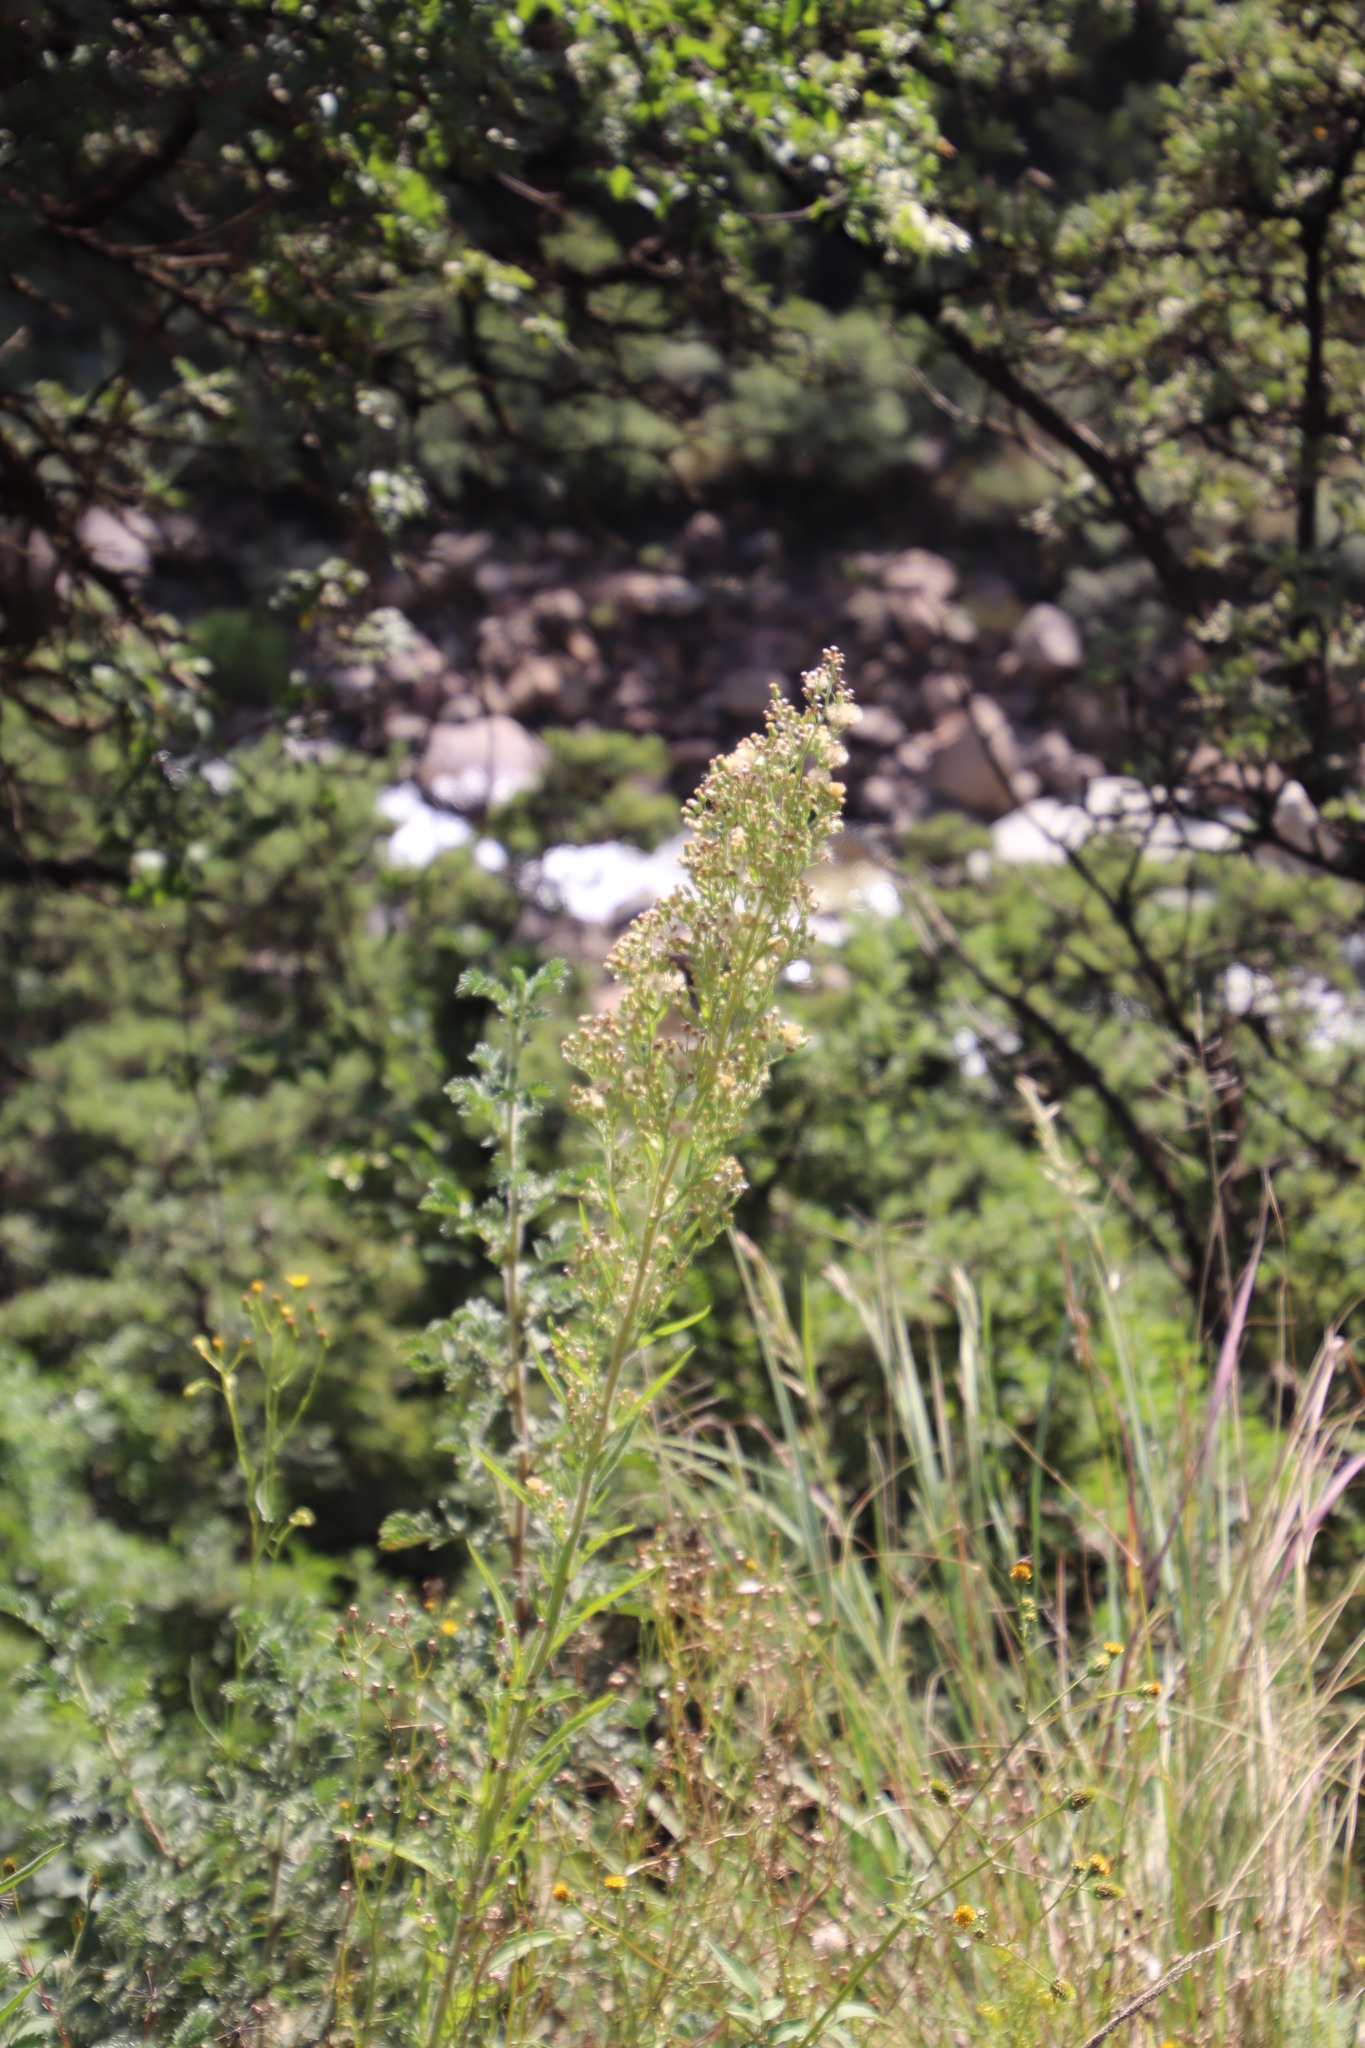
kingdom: Plantae
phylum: Tracheophyta
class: Magnoliopsida
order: Asterales
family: Asteraceae
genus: Erigeron
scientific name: Erigeron sumatrensis
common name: Daisy
